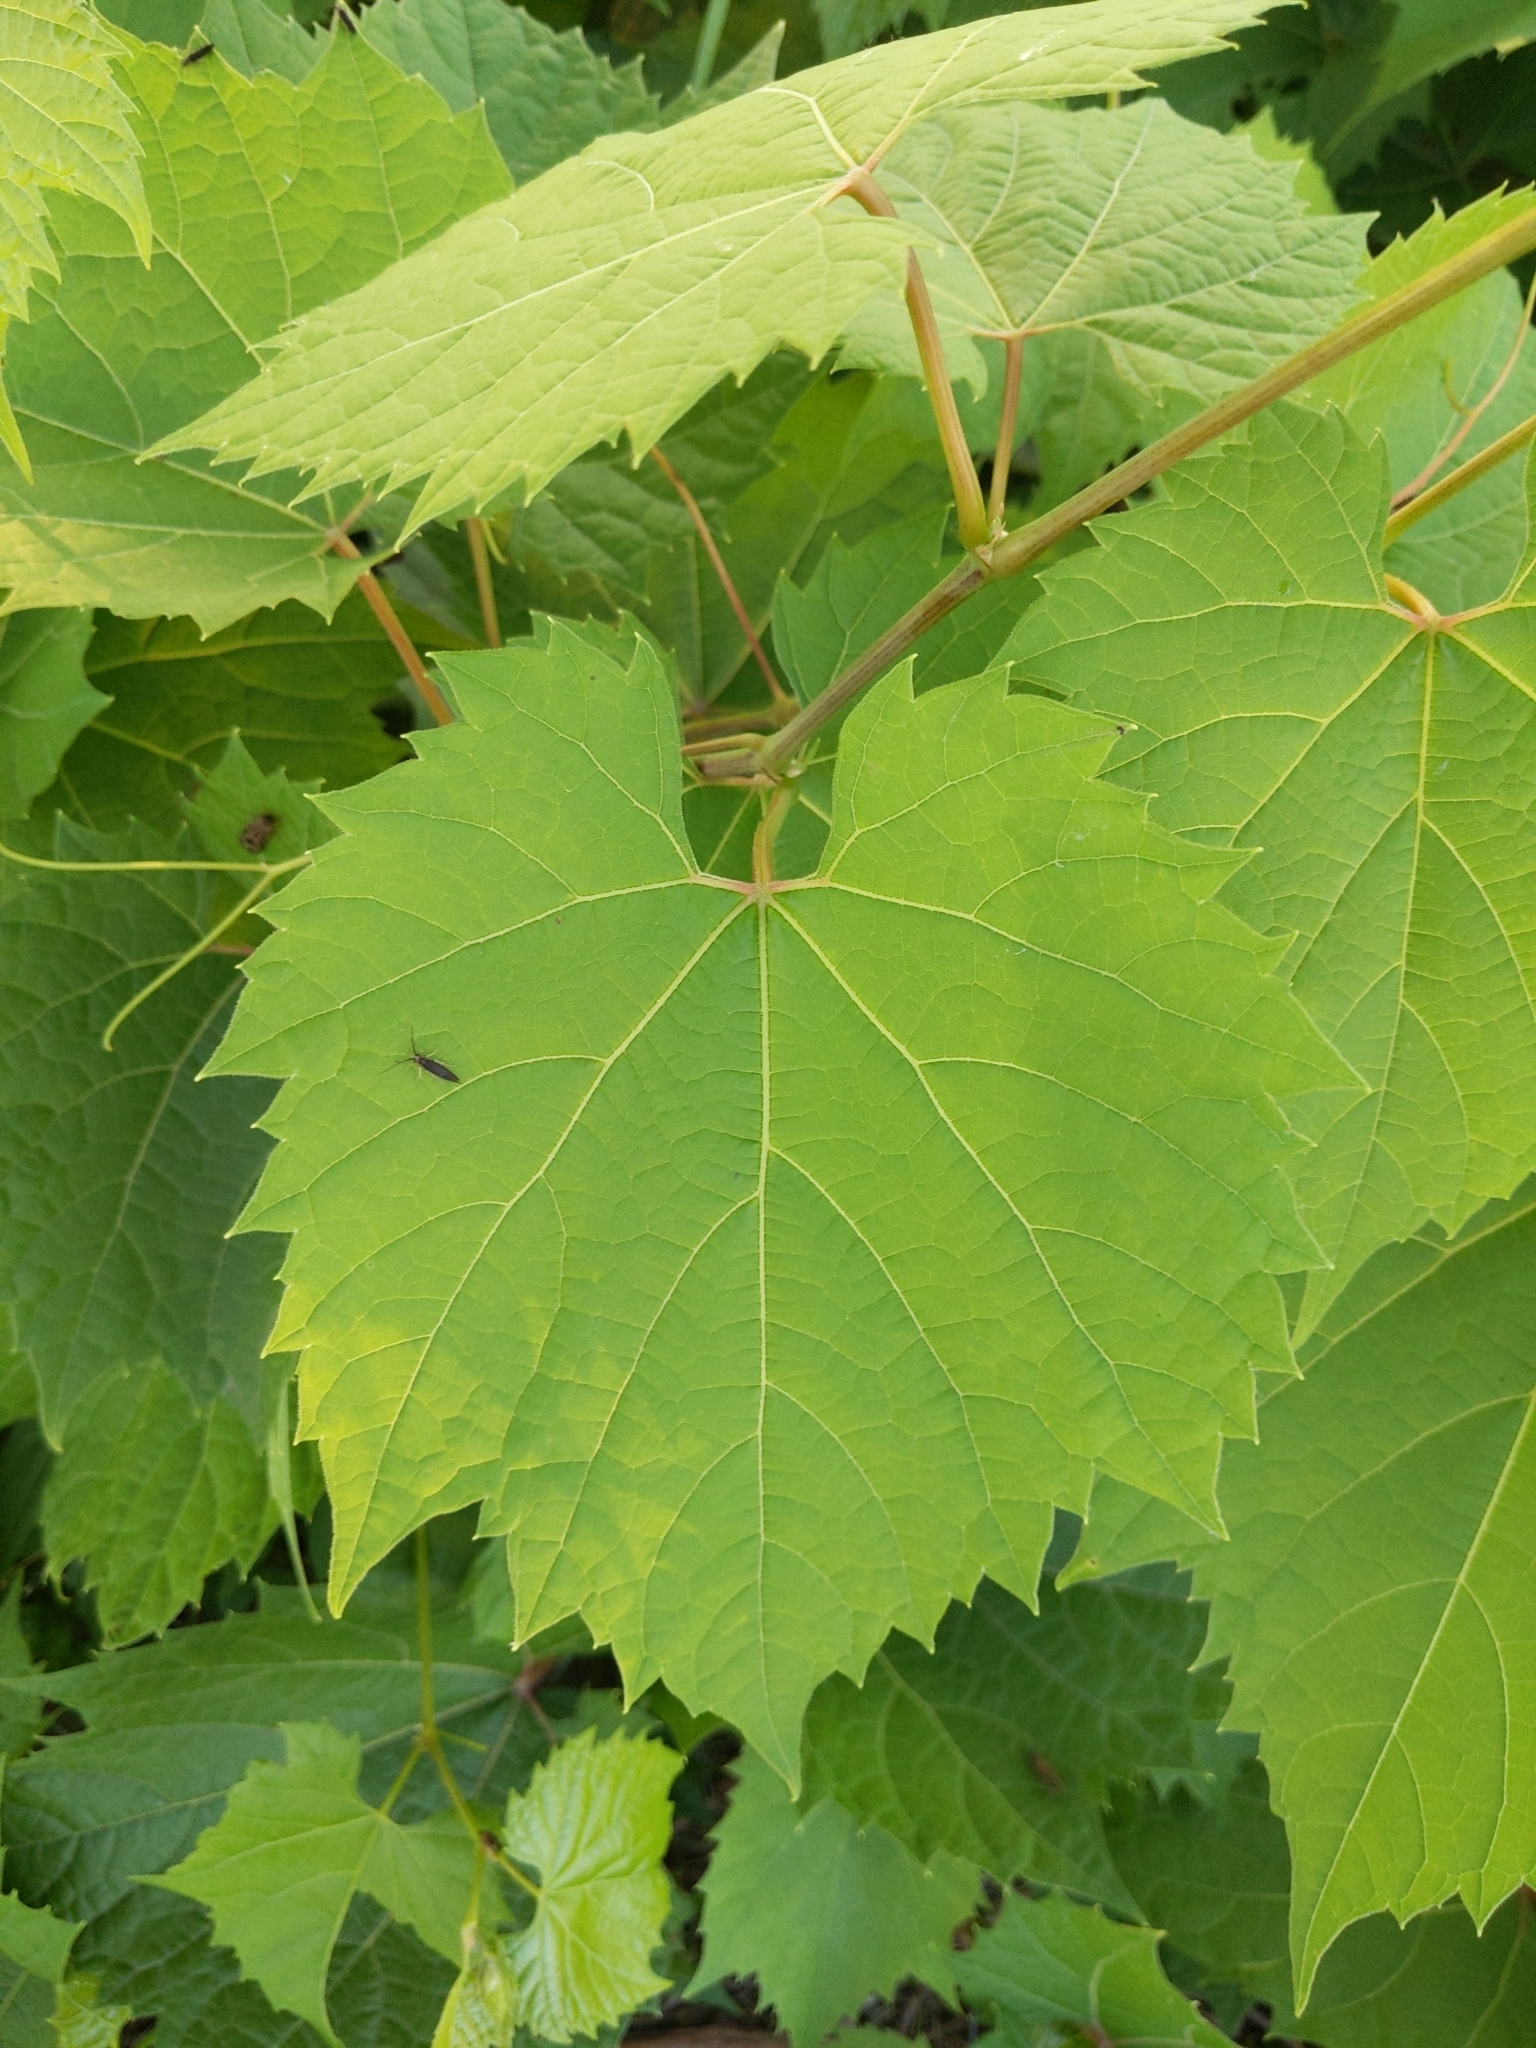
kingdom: Plantae
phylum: Tracheophyta
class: Magnoliopsida
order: Vitales
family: Vitaceae
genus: Vitis
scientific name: Vitis riparia
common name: Frost grape
